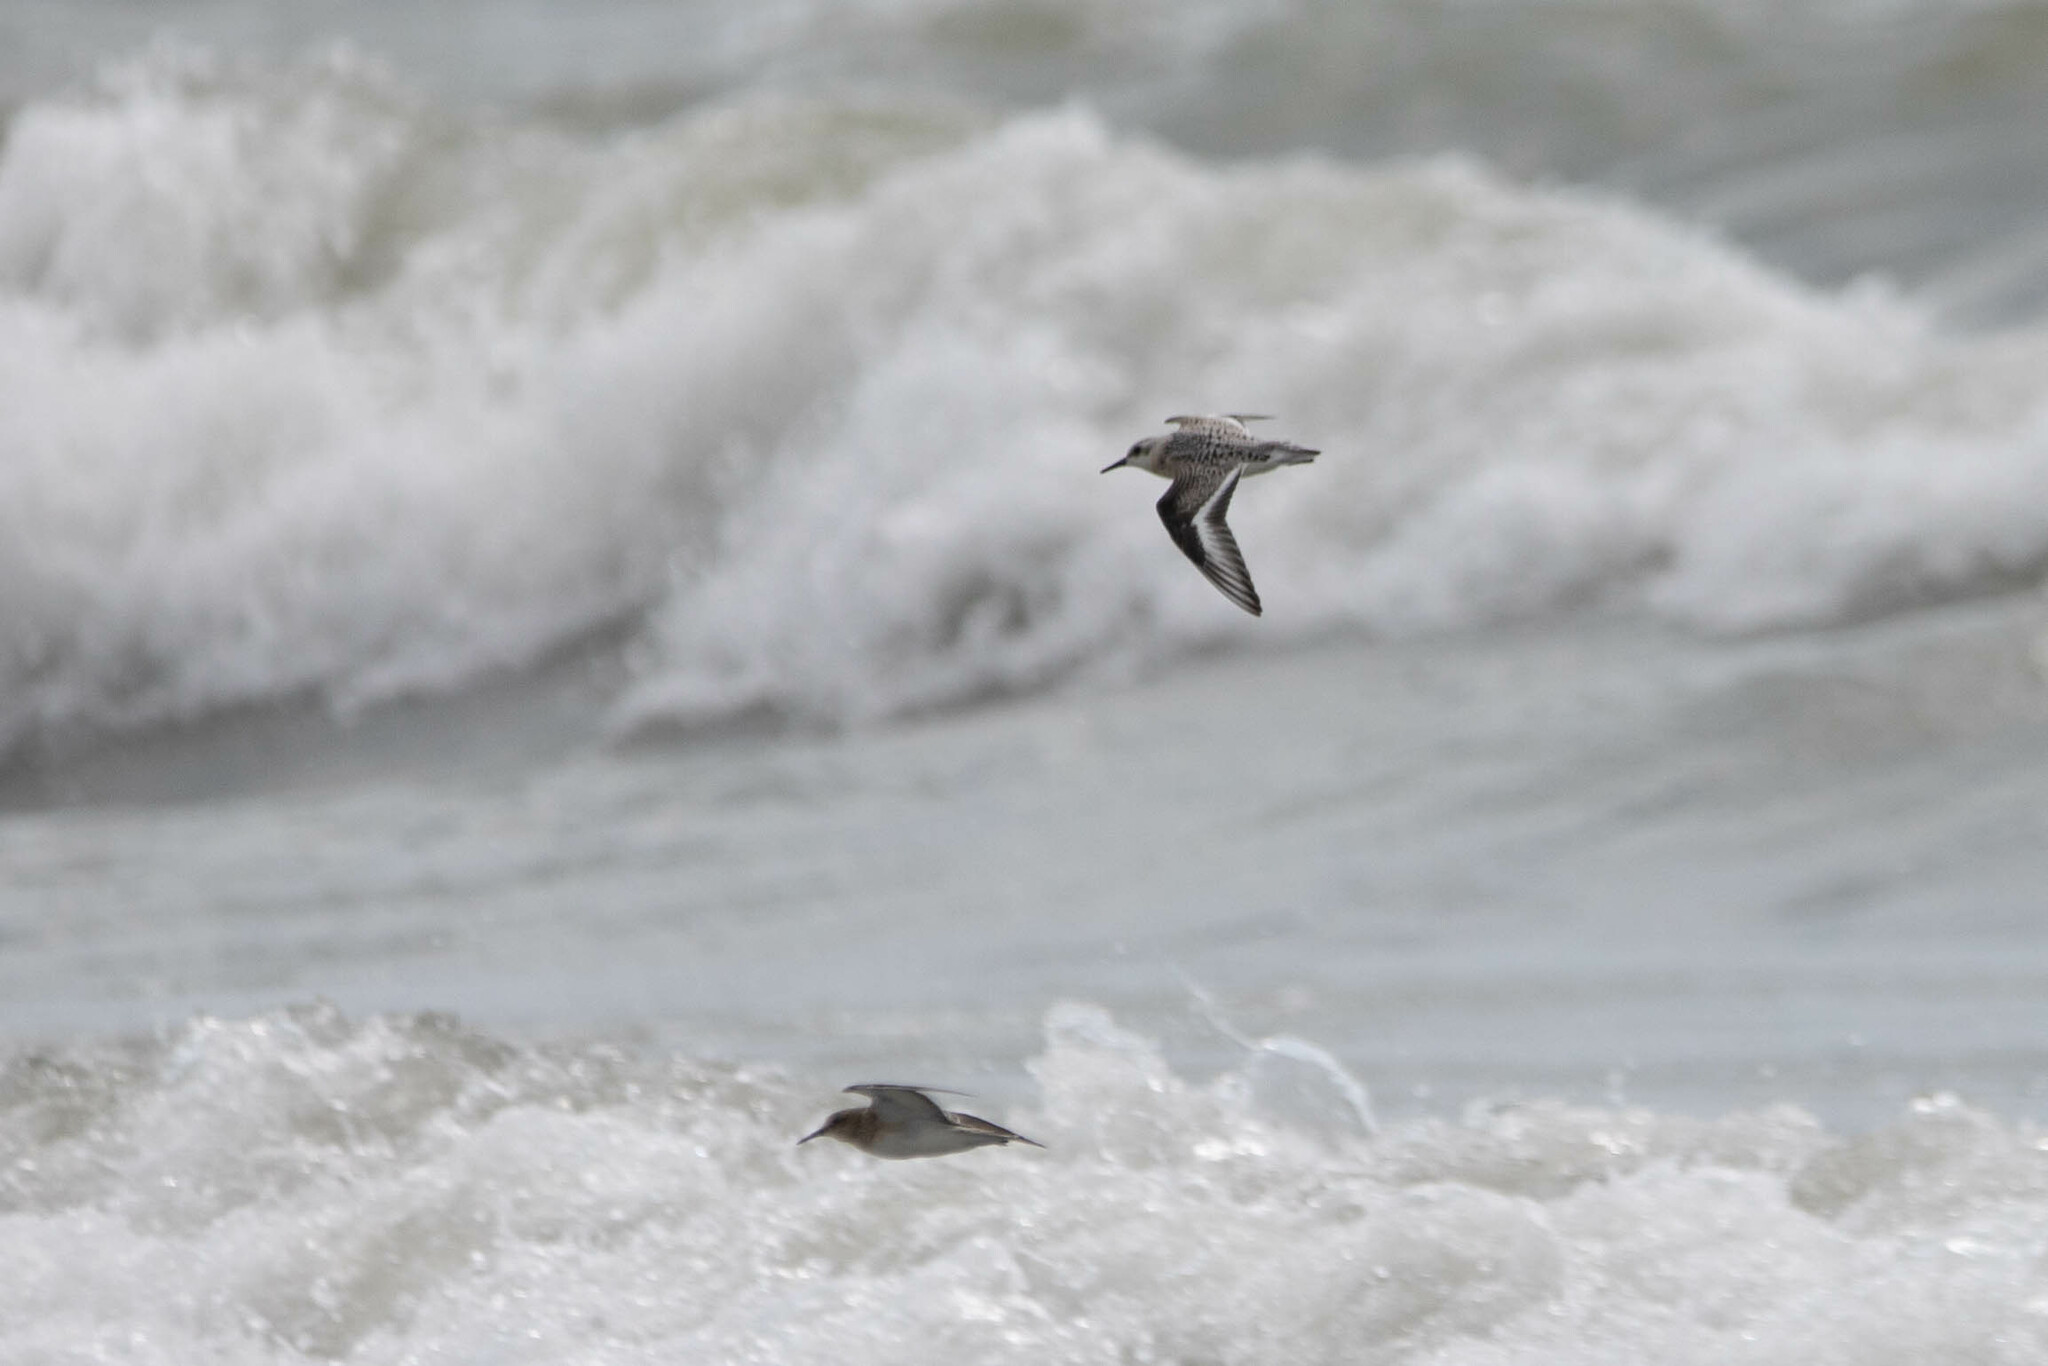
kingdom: Animalia
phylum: Chordata
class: Aves
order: Charadriiformes
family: Scolopacidae
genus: Calidris
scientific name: Calidris alba
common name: Sanderling
